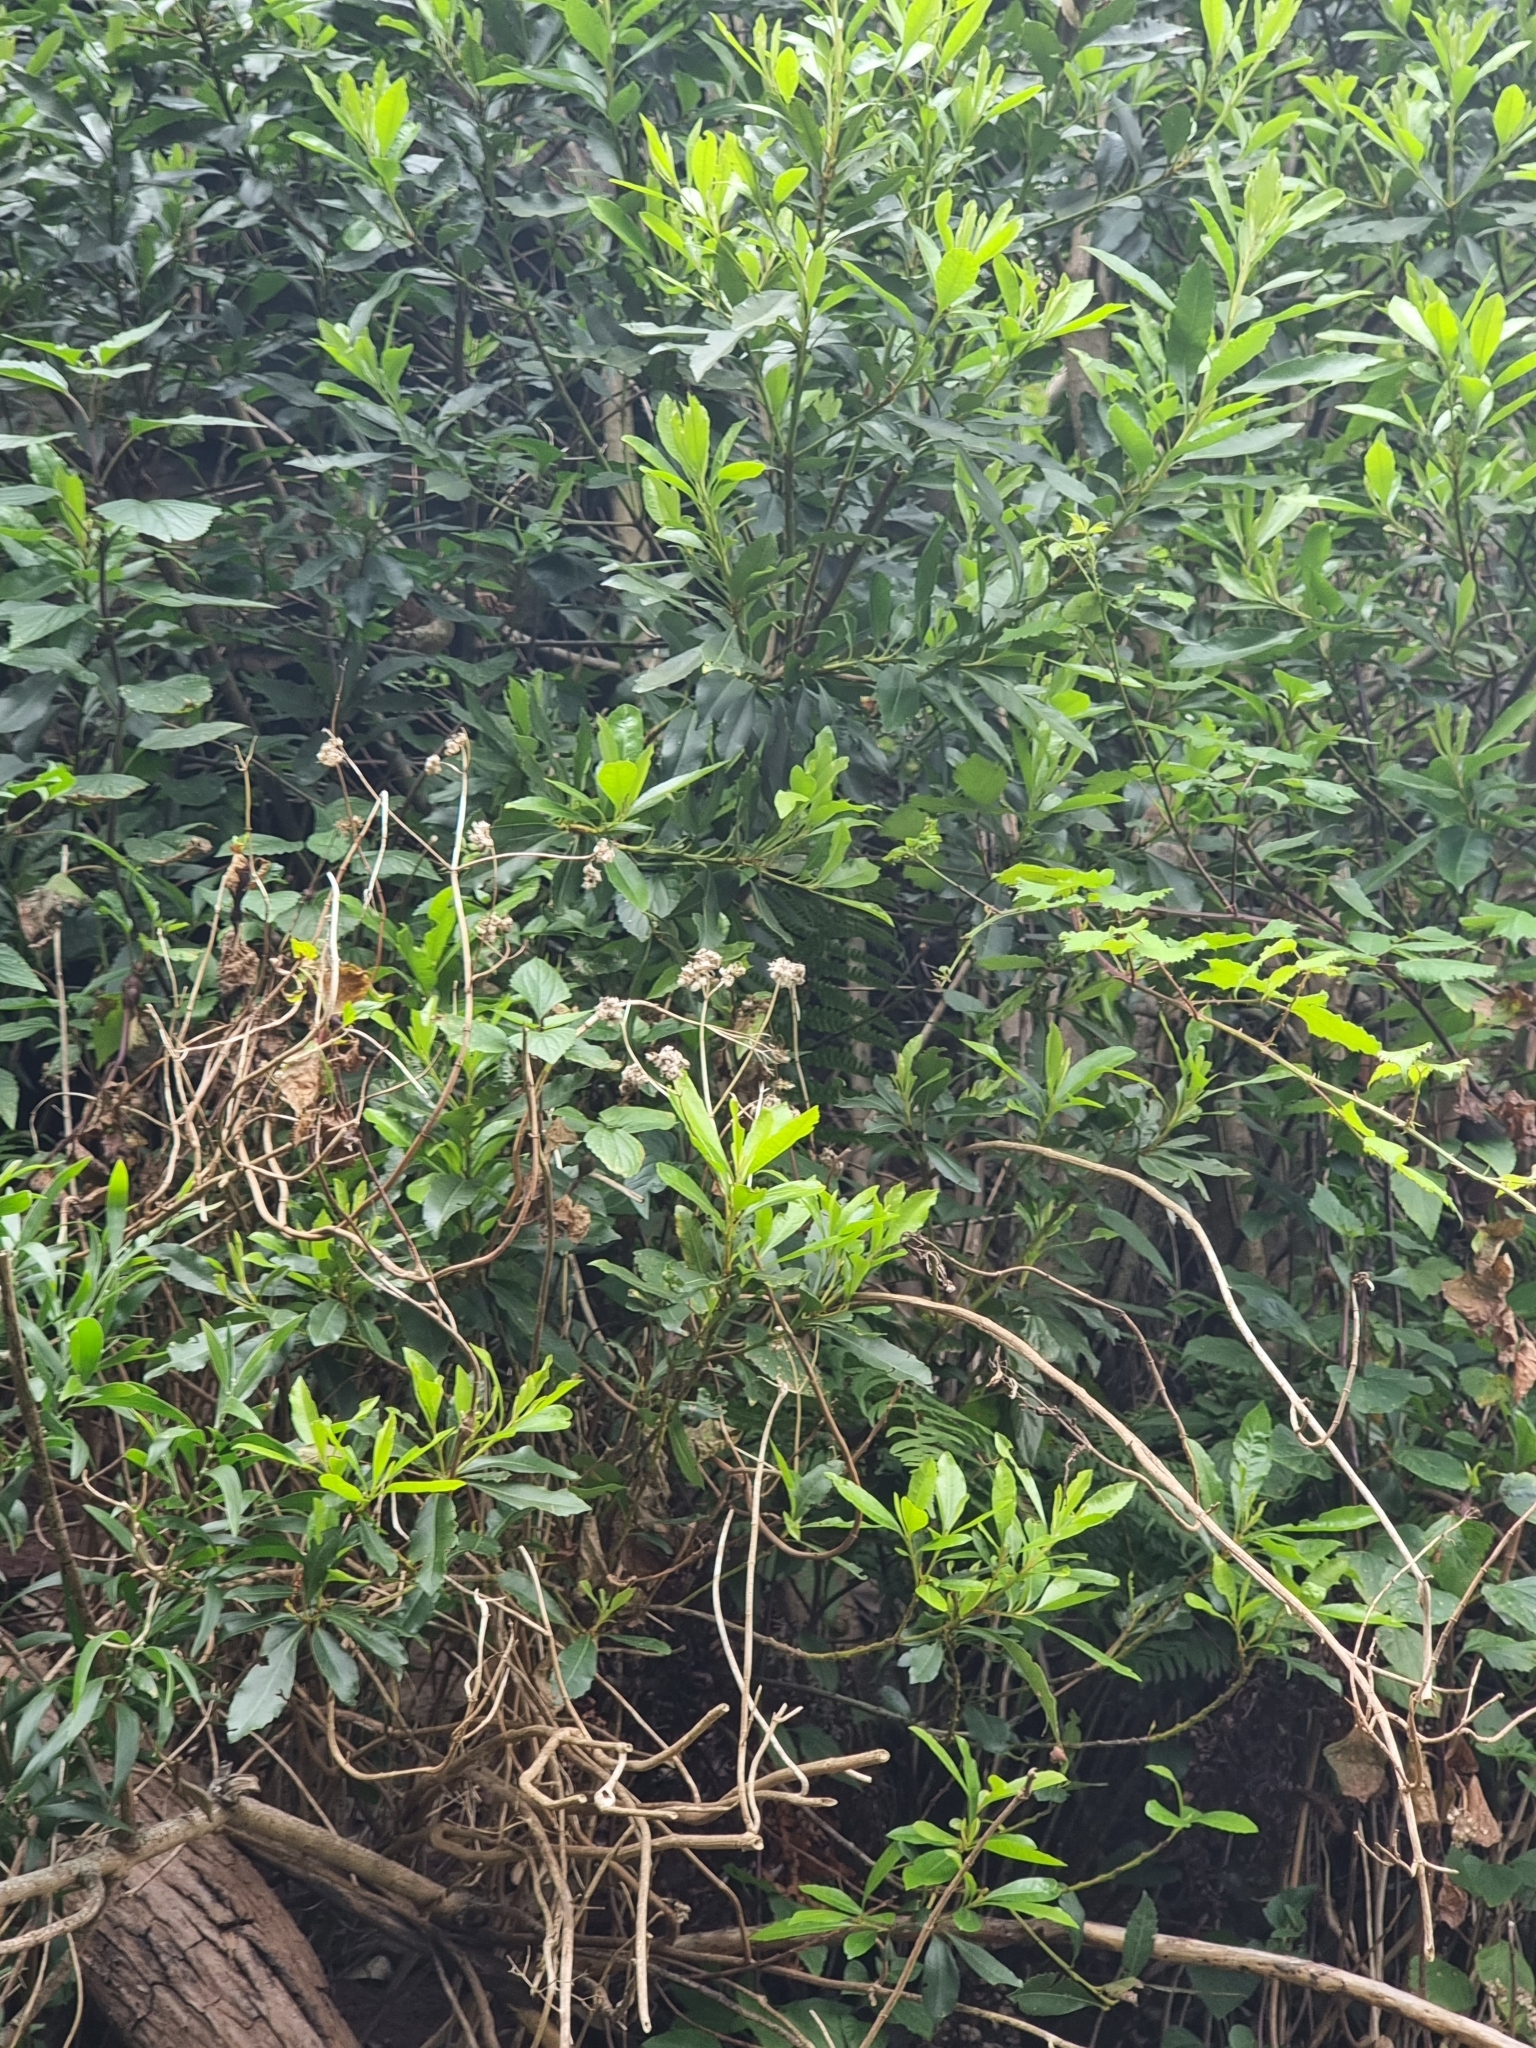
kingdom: Plantae
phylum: Tracheophyta
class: Magnoliopsida
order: Fagales
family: Myricaceae
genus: Morella
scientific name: Morella faya
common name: Firetree
